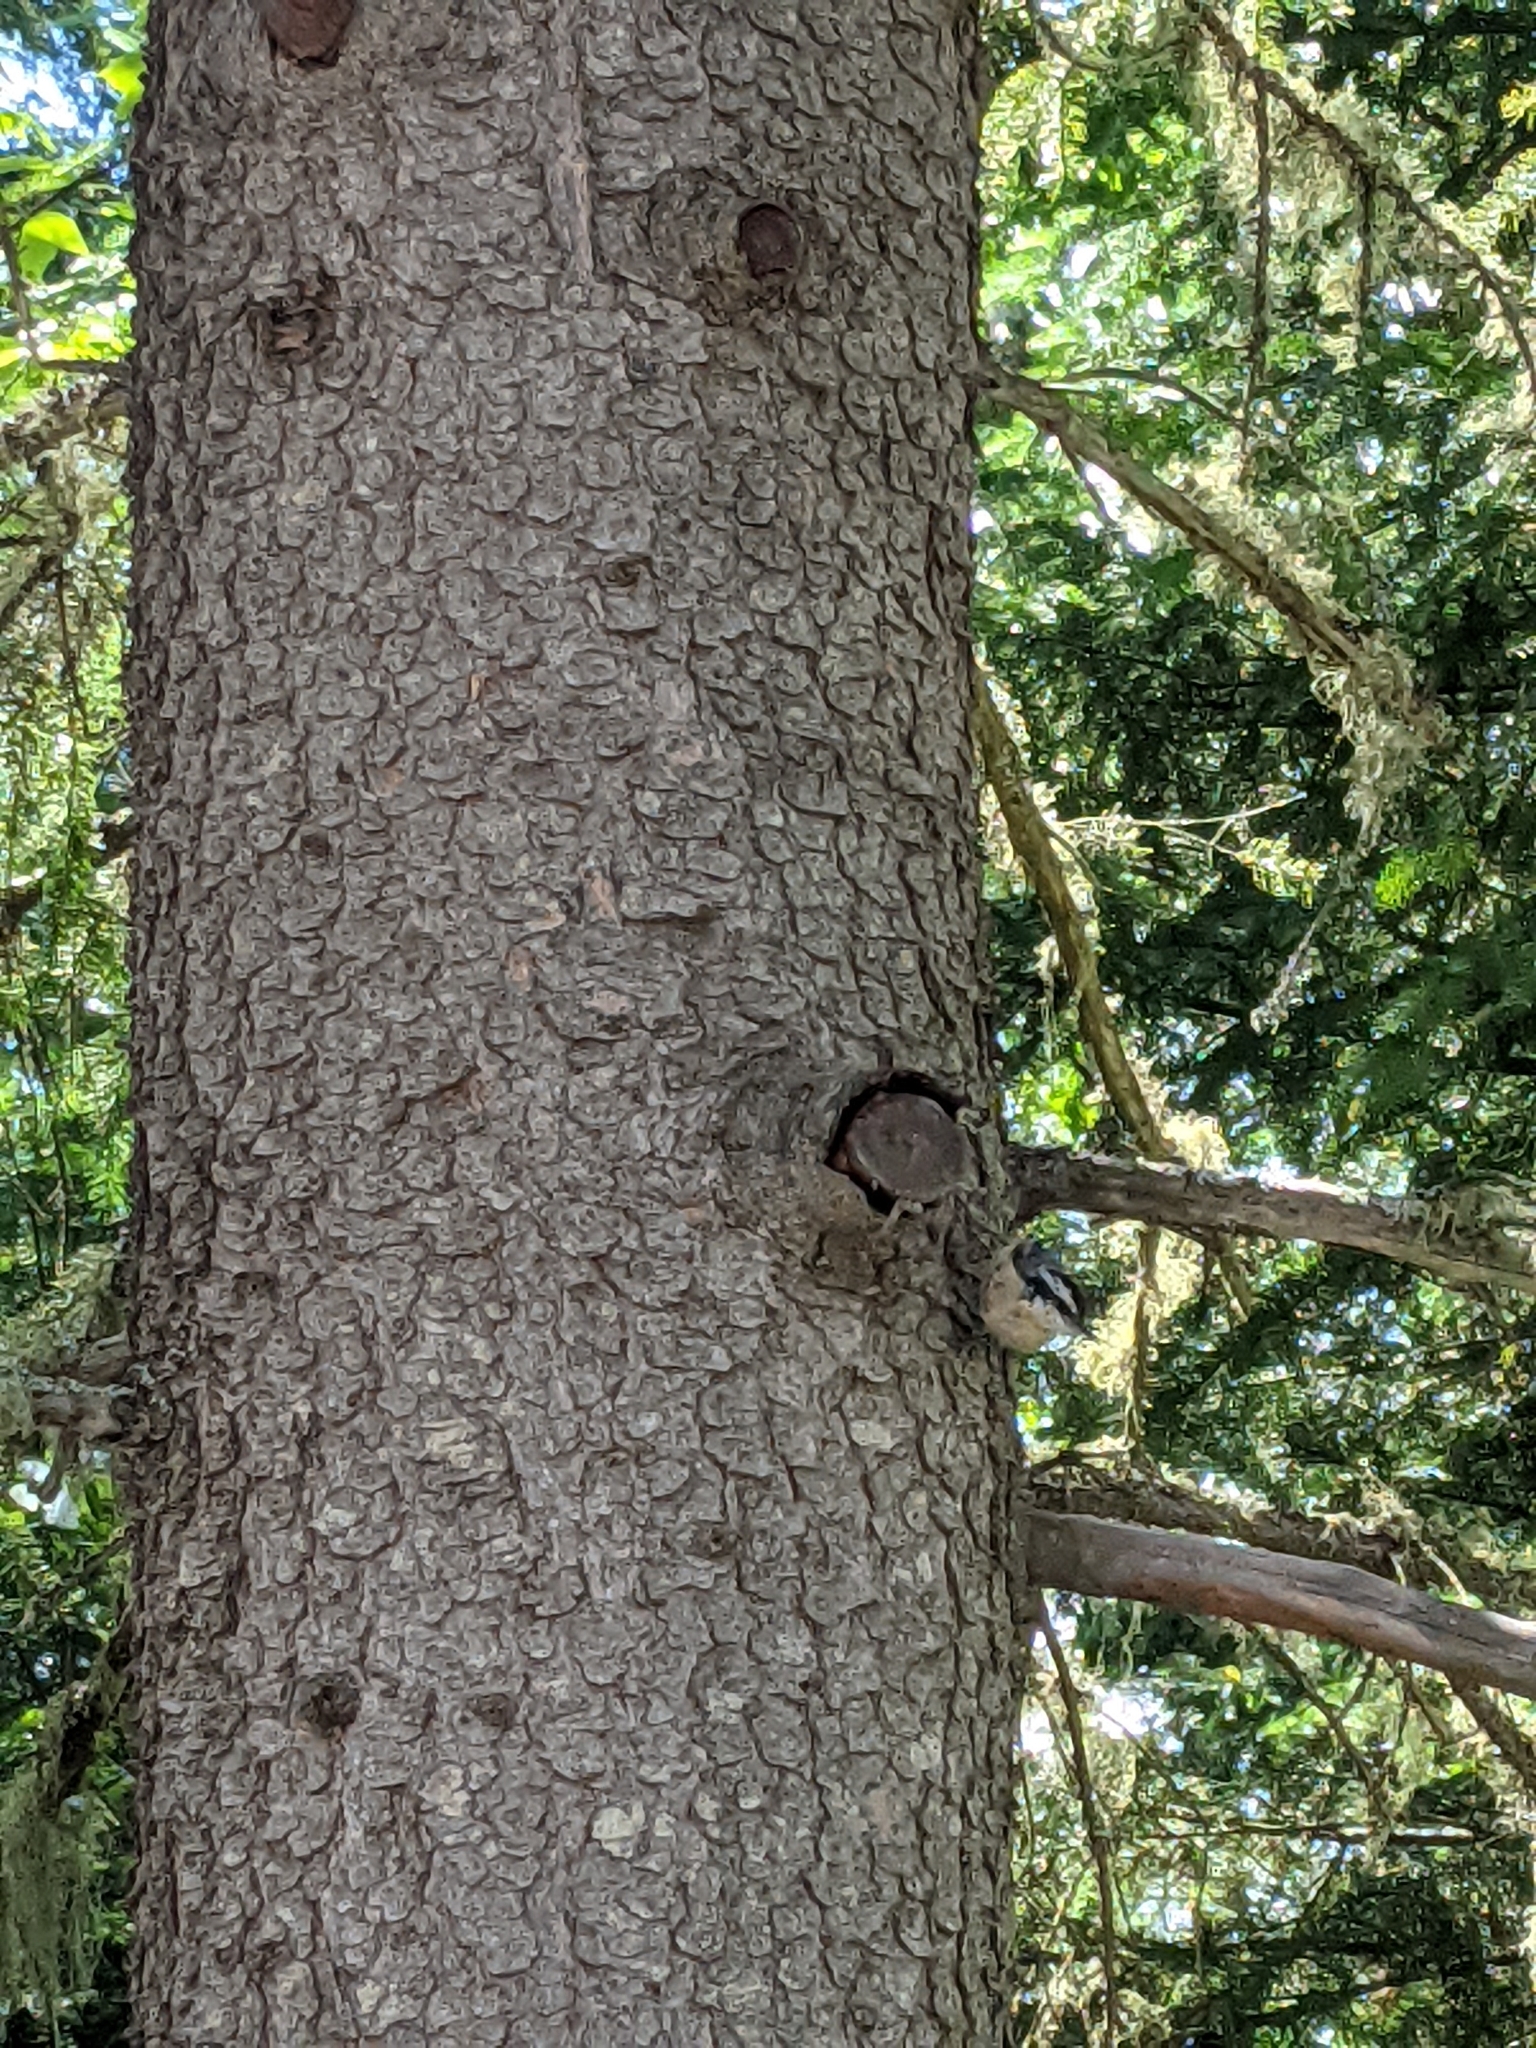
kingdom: Animalia
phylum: Chordata
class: Aves
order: Passeriformes
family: Sittidae
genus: Sitta
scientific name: Sitta canadensis
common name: Red-breasted nuthatch
